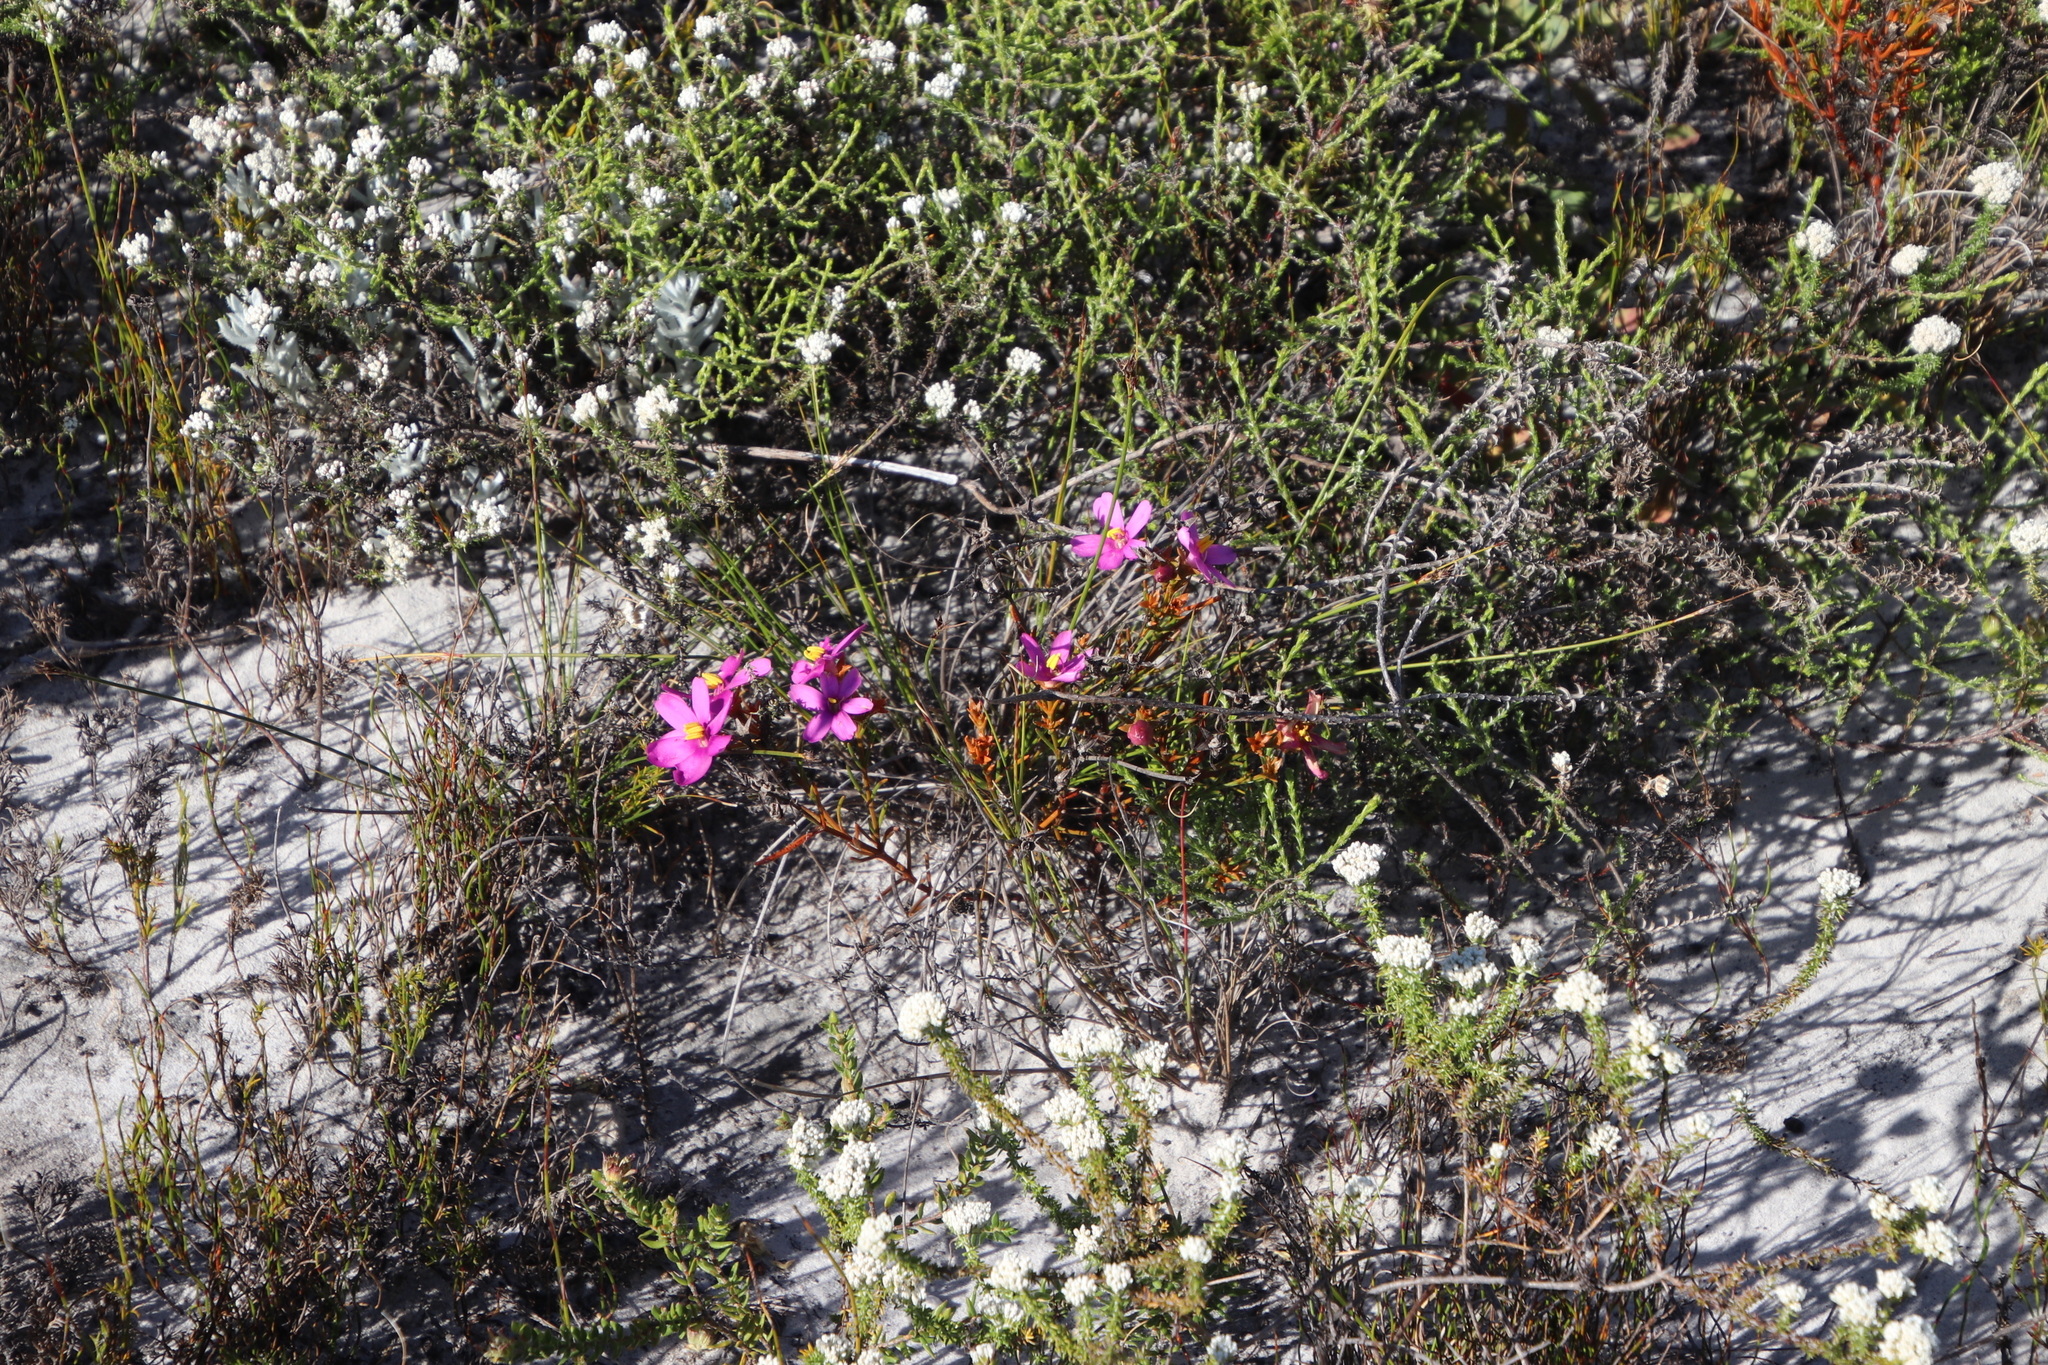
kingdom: Plantae
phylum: Tracheophyta
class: Magnoliopsida
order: Gentianales
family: Gentianaceae
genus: Chironia
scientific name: Chironia linoides
